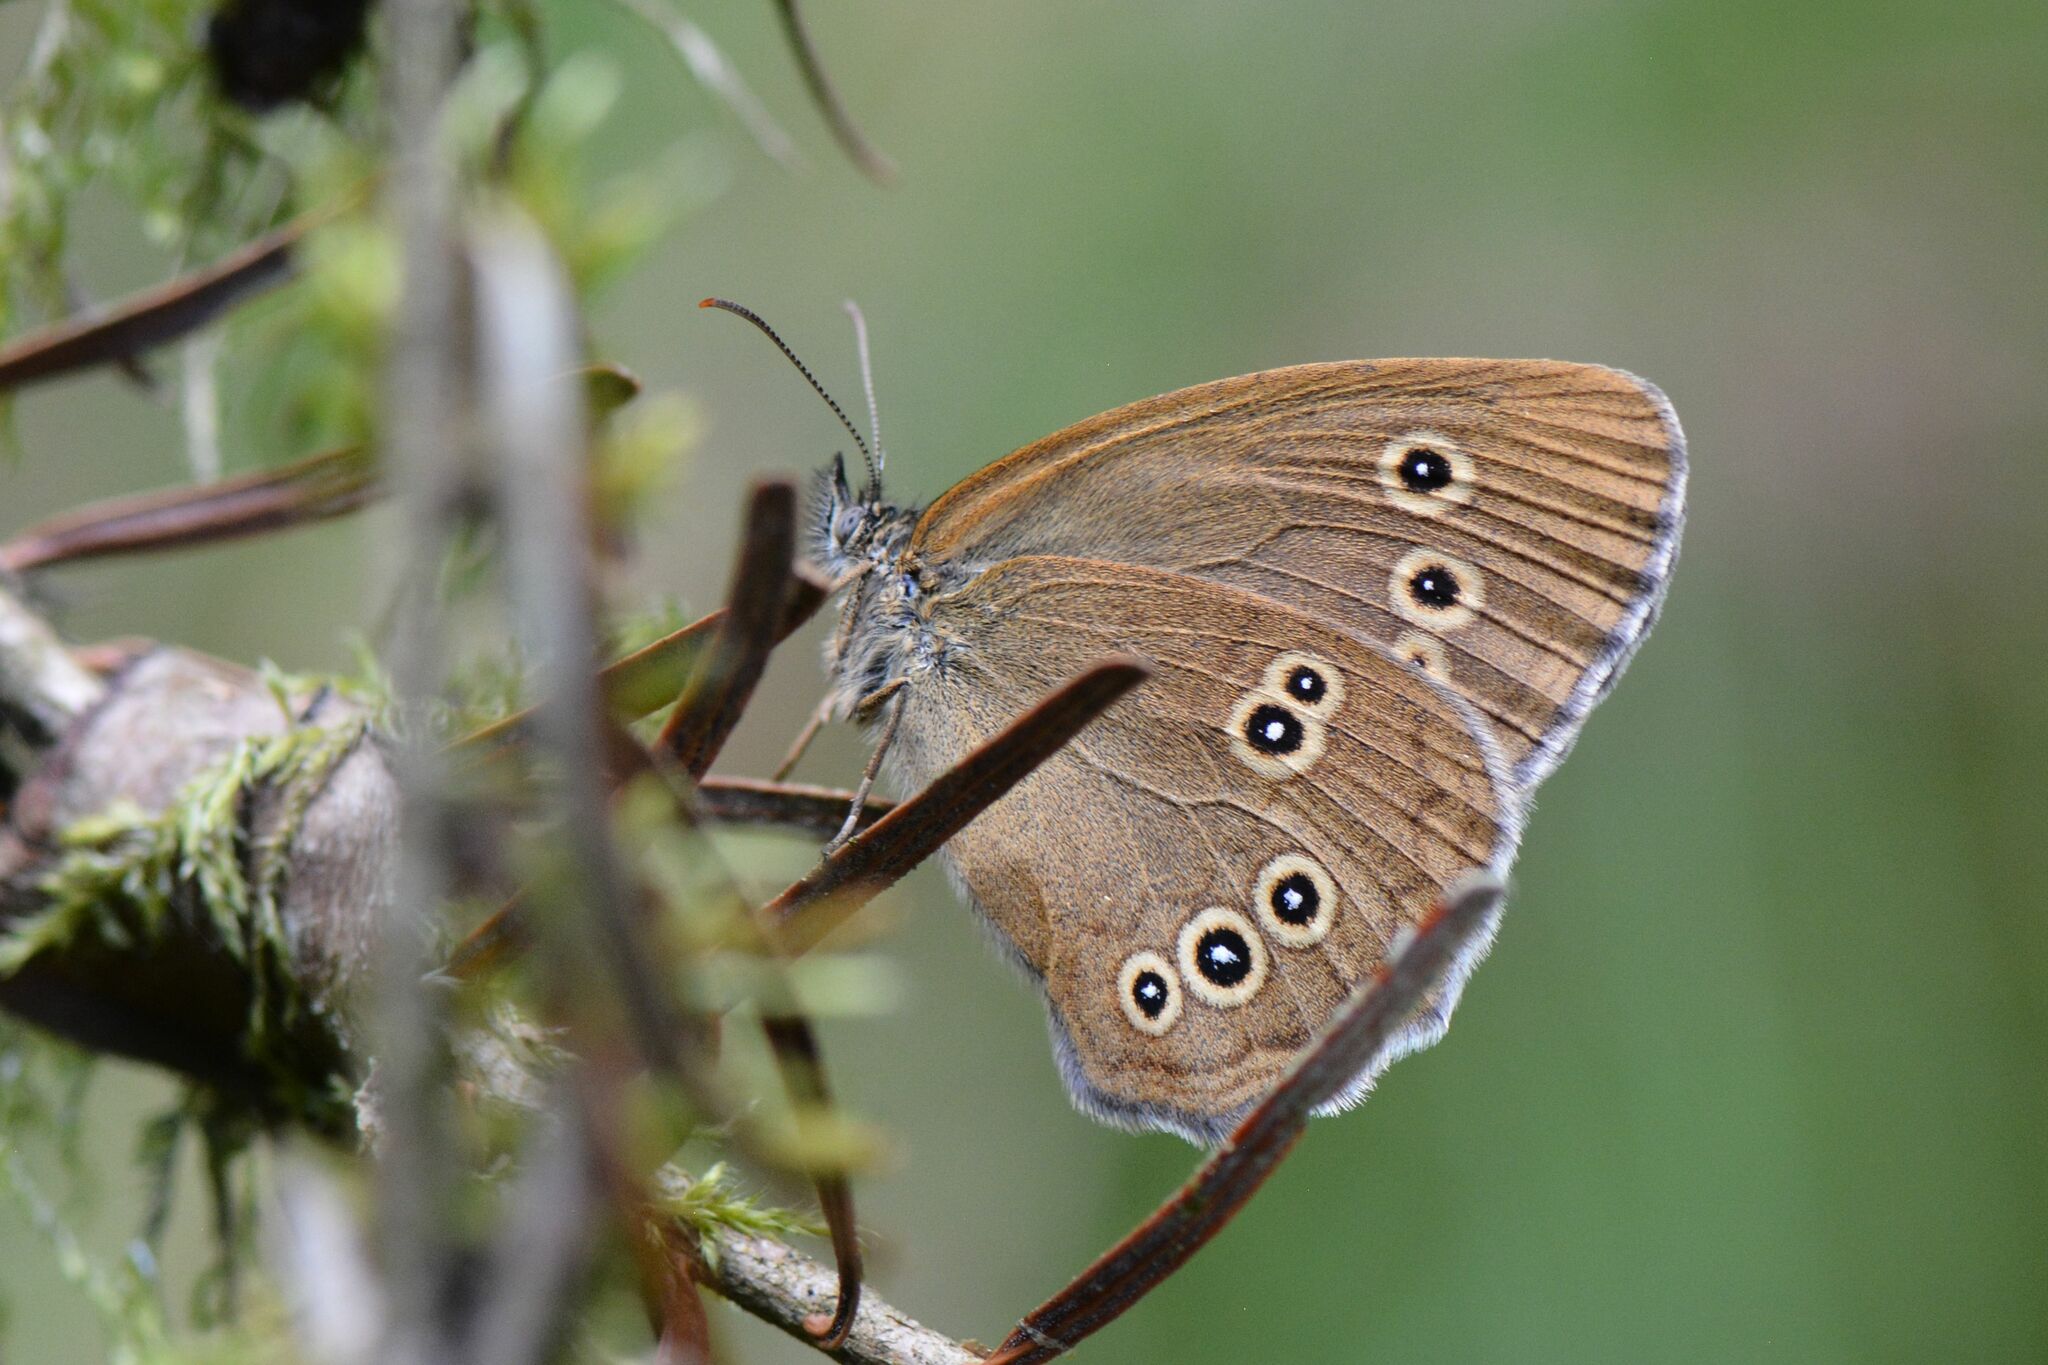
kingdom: Animalia
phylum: Arthropoda
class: Insecta
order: Lepidoptera
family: Nymphalidae
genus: Aphantopus
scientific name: Aphantopus hyperantus
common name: Ringlet
